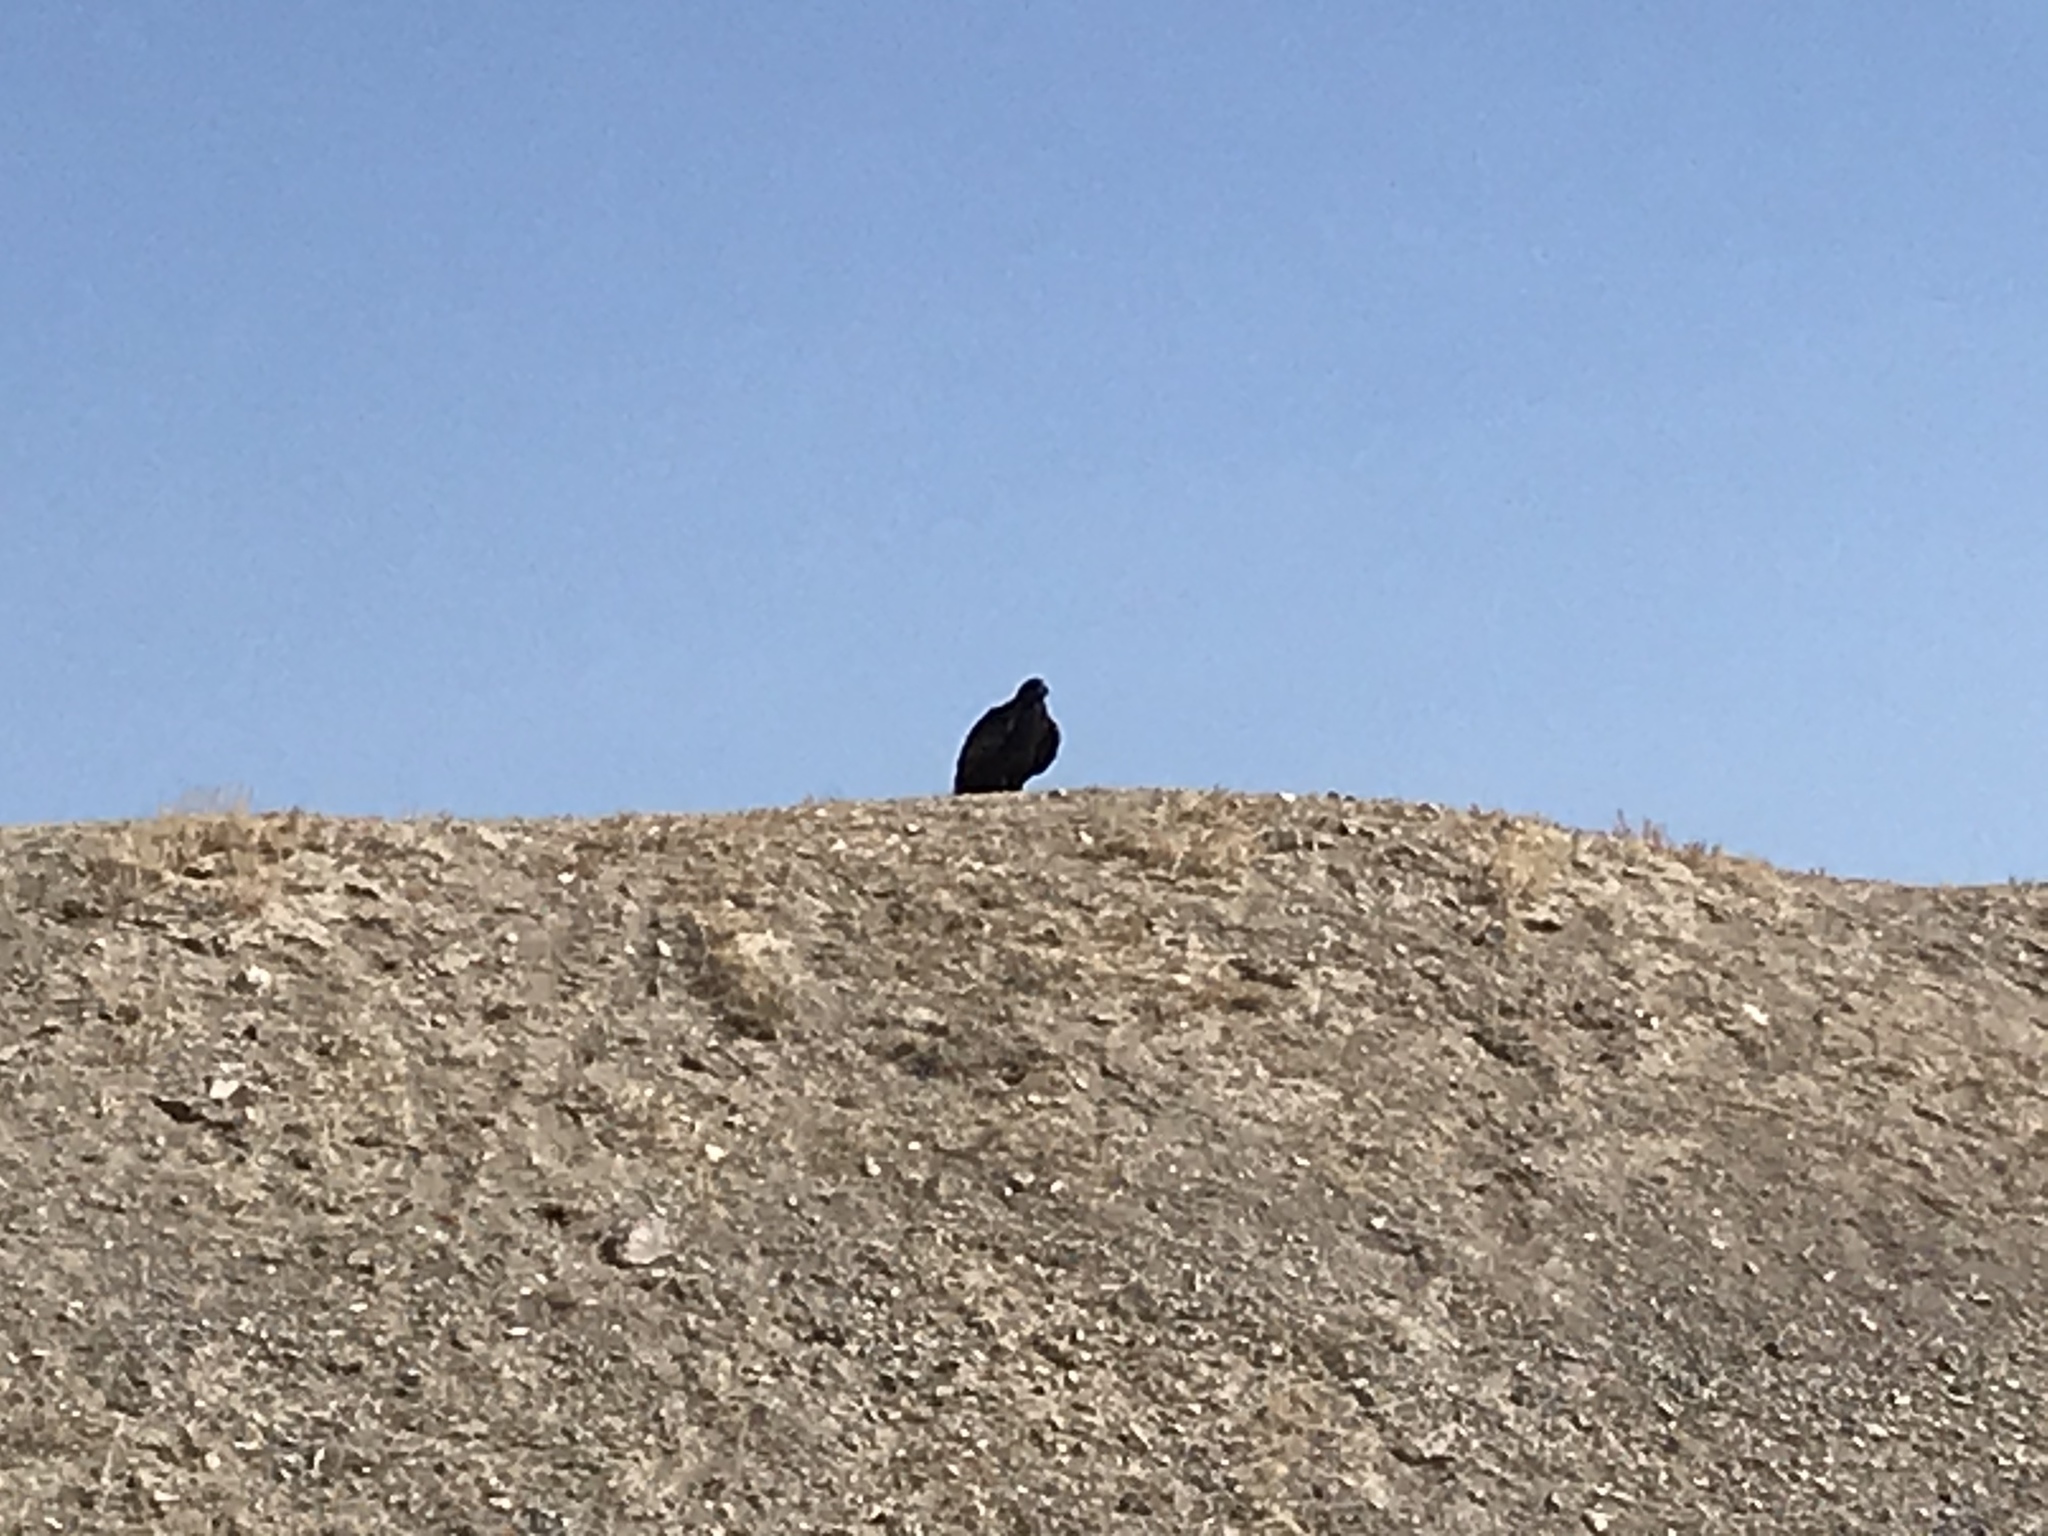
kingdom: Animalia
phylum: Chordata
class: Aves
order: Accipitriformes
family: Accipitridae
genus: Aquila
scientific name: Aquila chrysaetos
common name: Golden eagle
